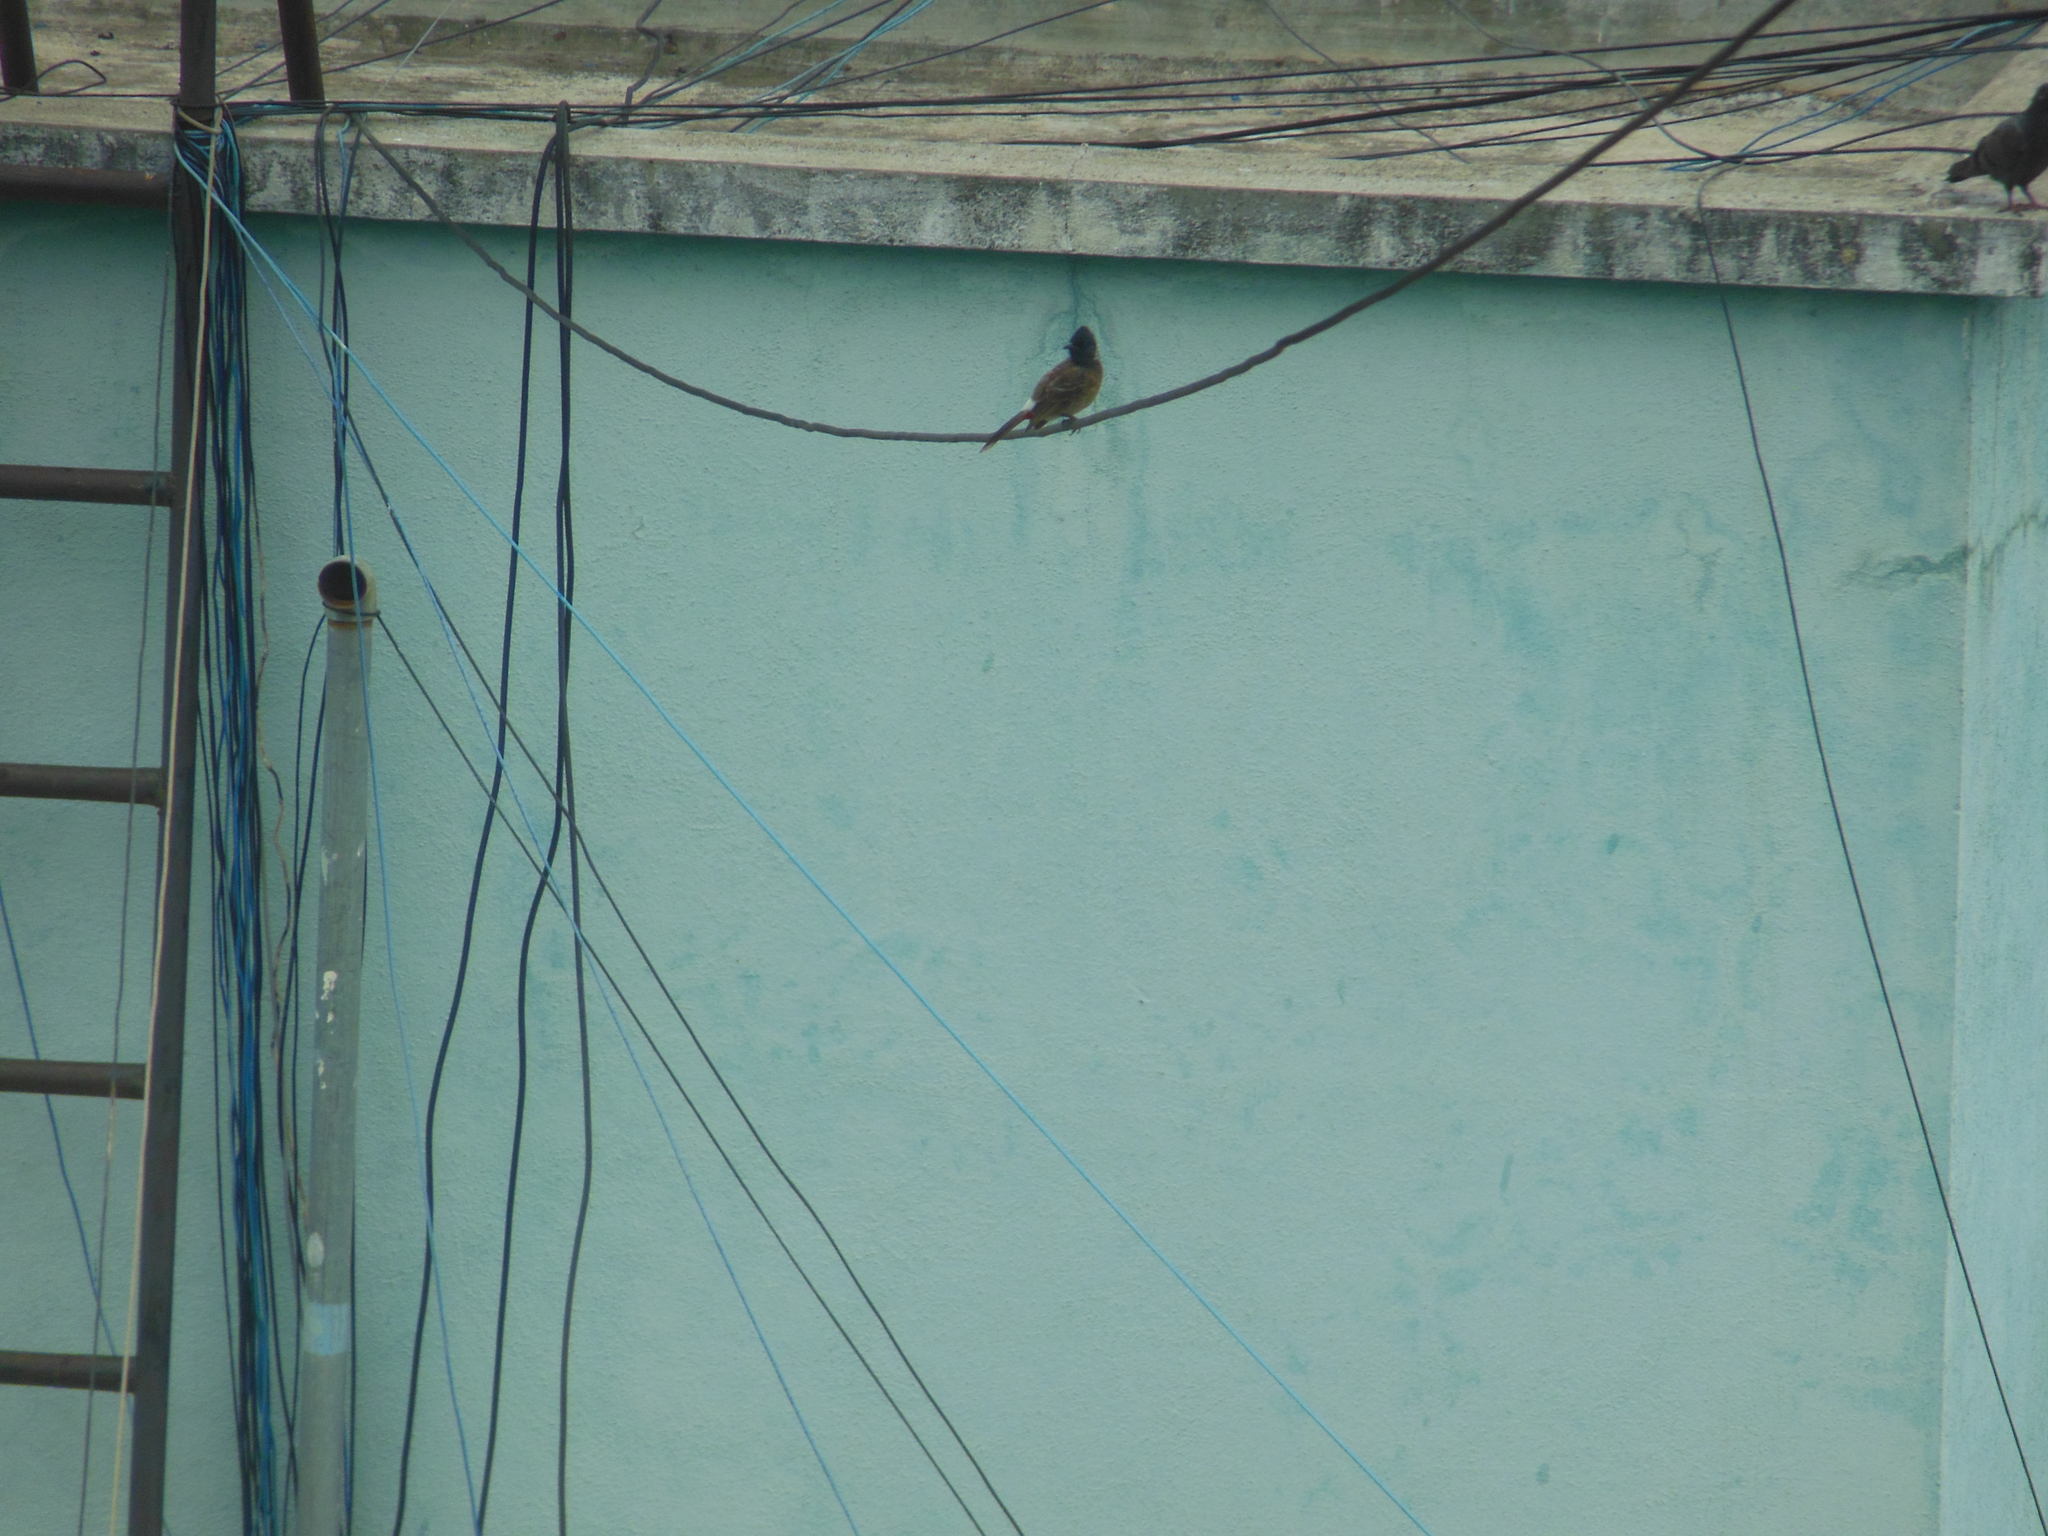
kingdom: Animalia
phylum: Chordata
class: Aves
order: Passeriformes
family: Pycnonotidae
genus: Pycnonotus
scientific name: Pycnonotus cafer
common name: Red-vented bulbul
